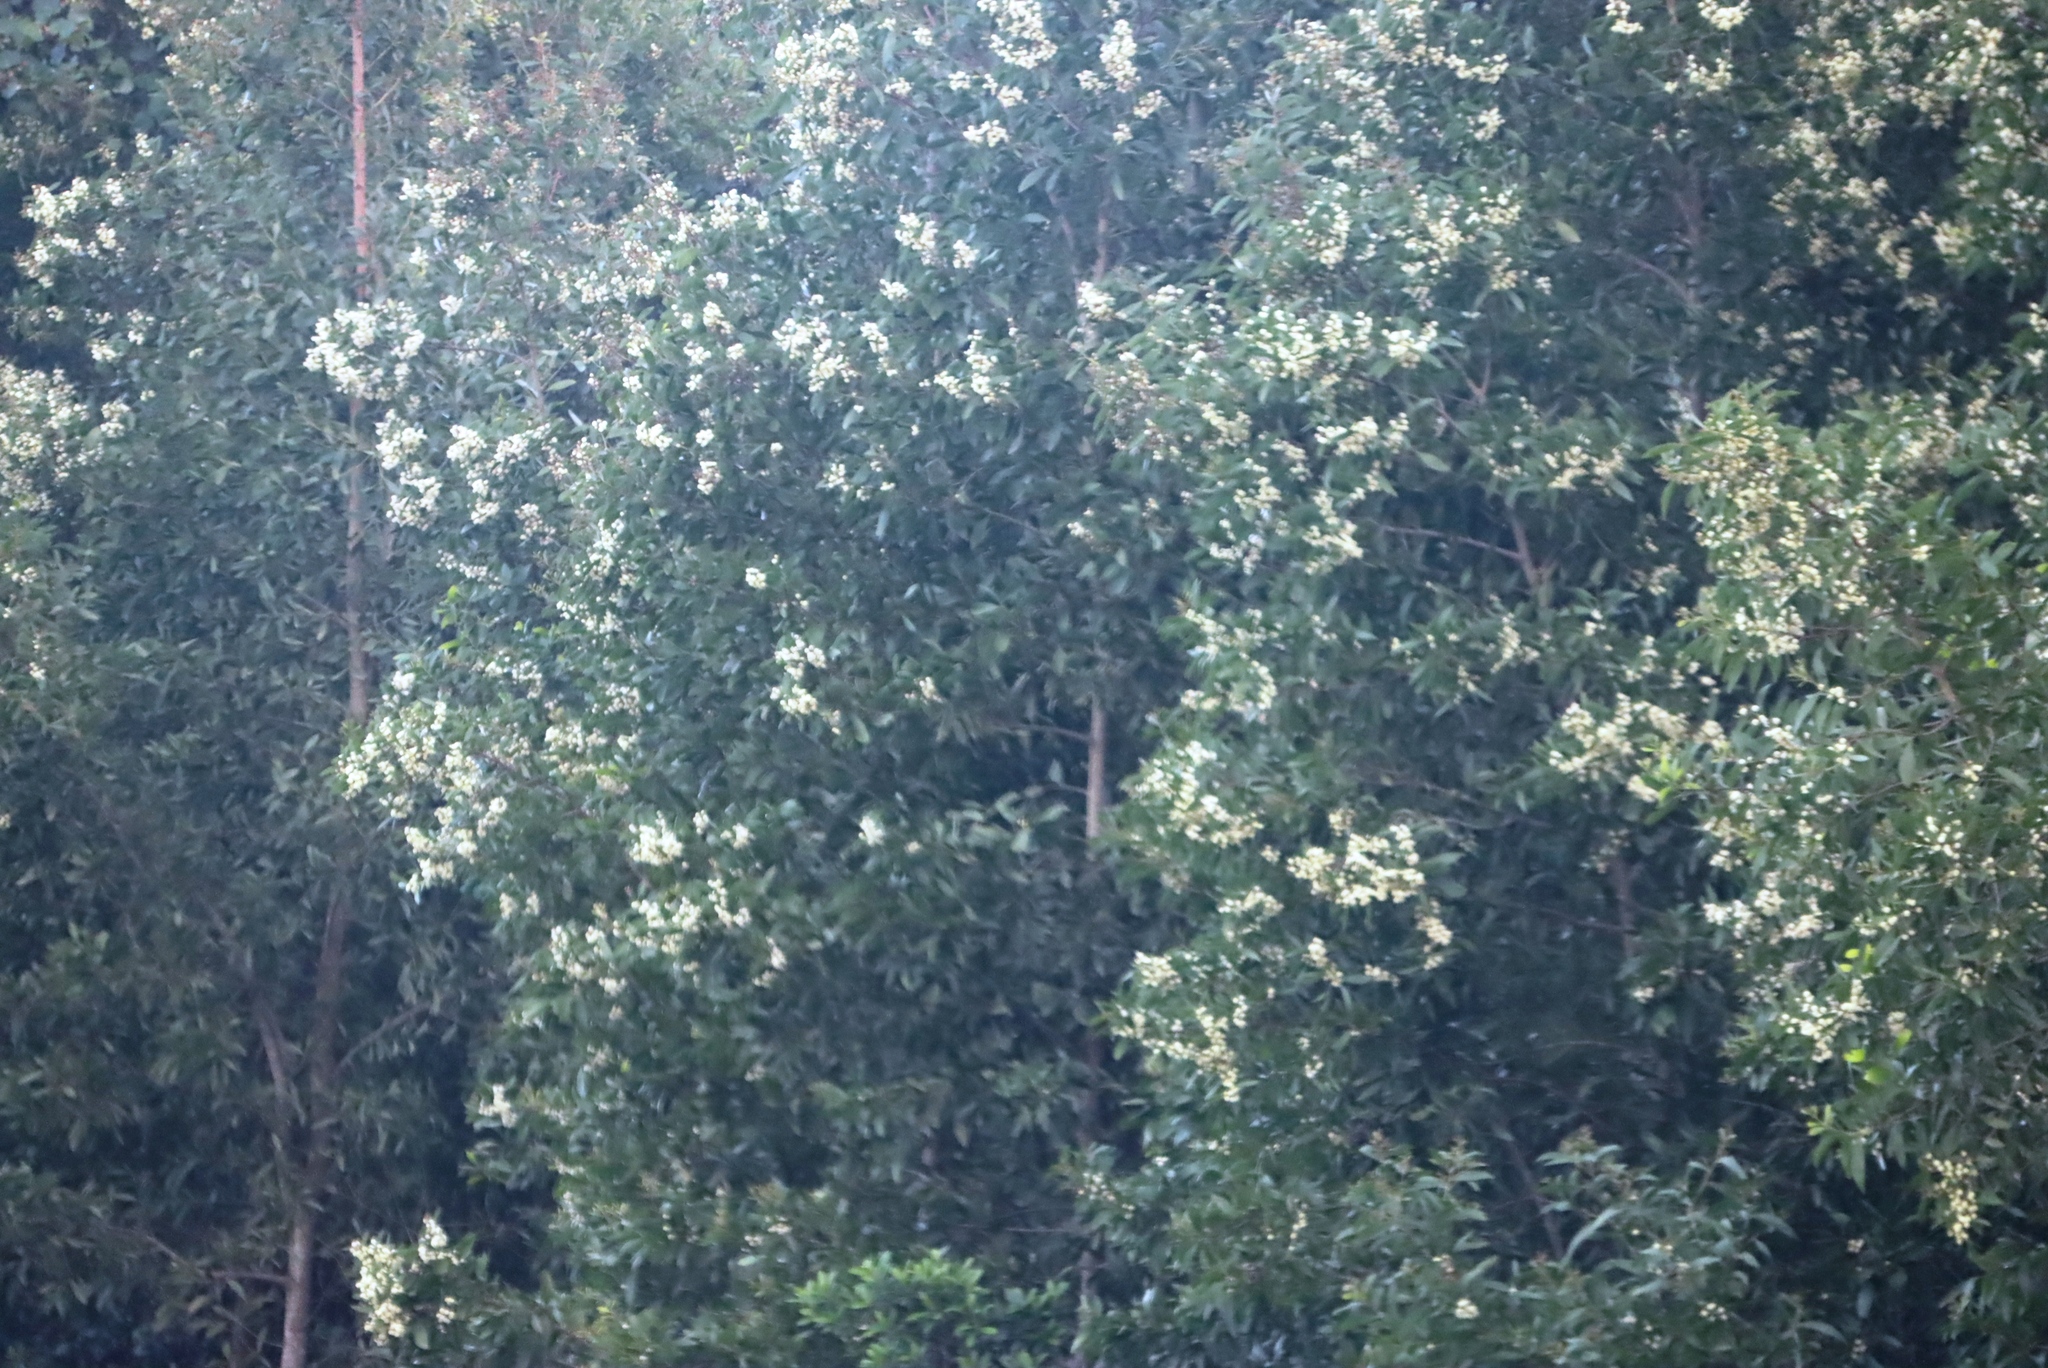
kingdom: Plantae
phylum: Tracheophyta
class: Magnoliopsida
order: Fabales
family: Fabaceae
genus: Acacia
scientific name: Acacia melanoxylon
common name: Blackwood
